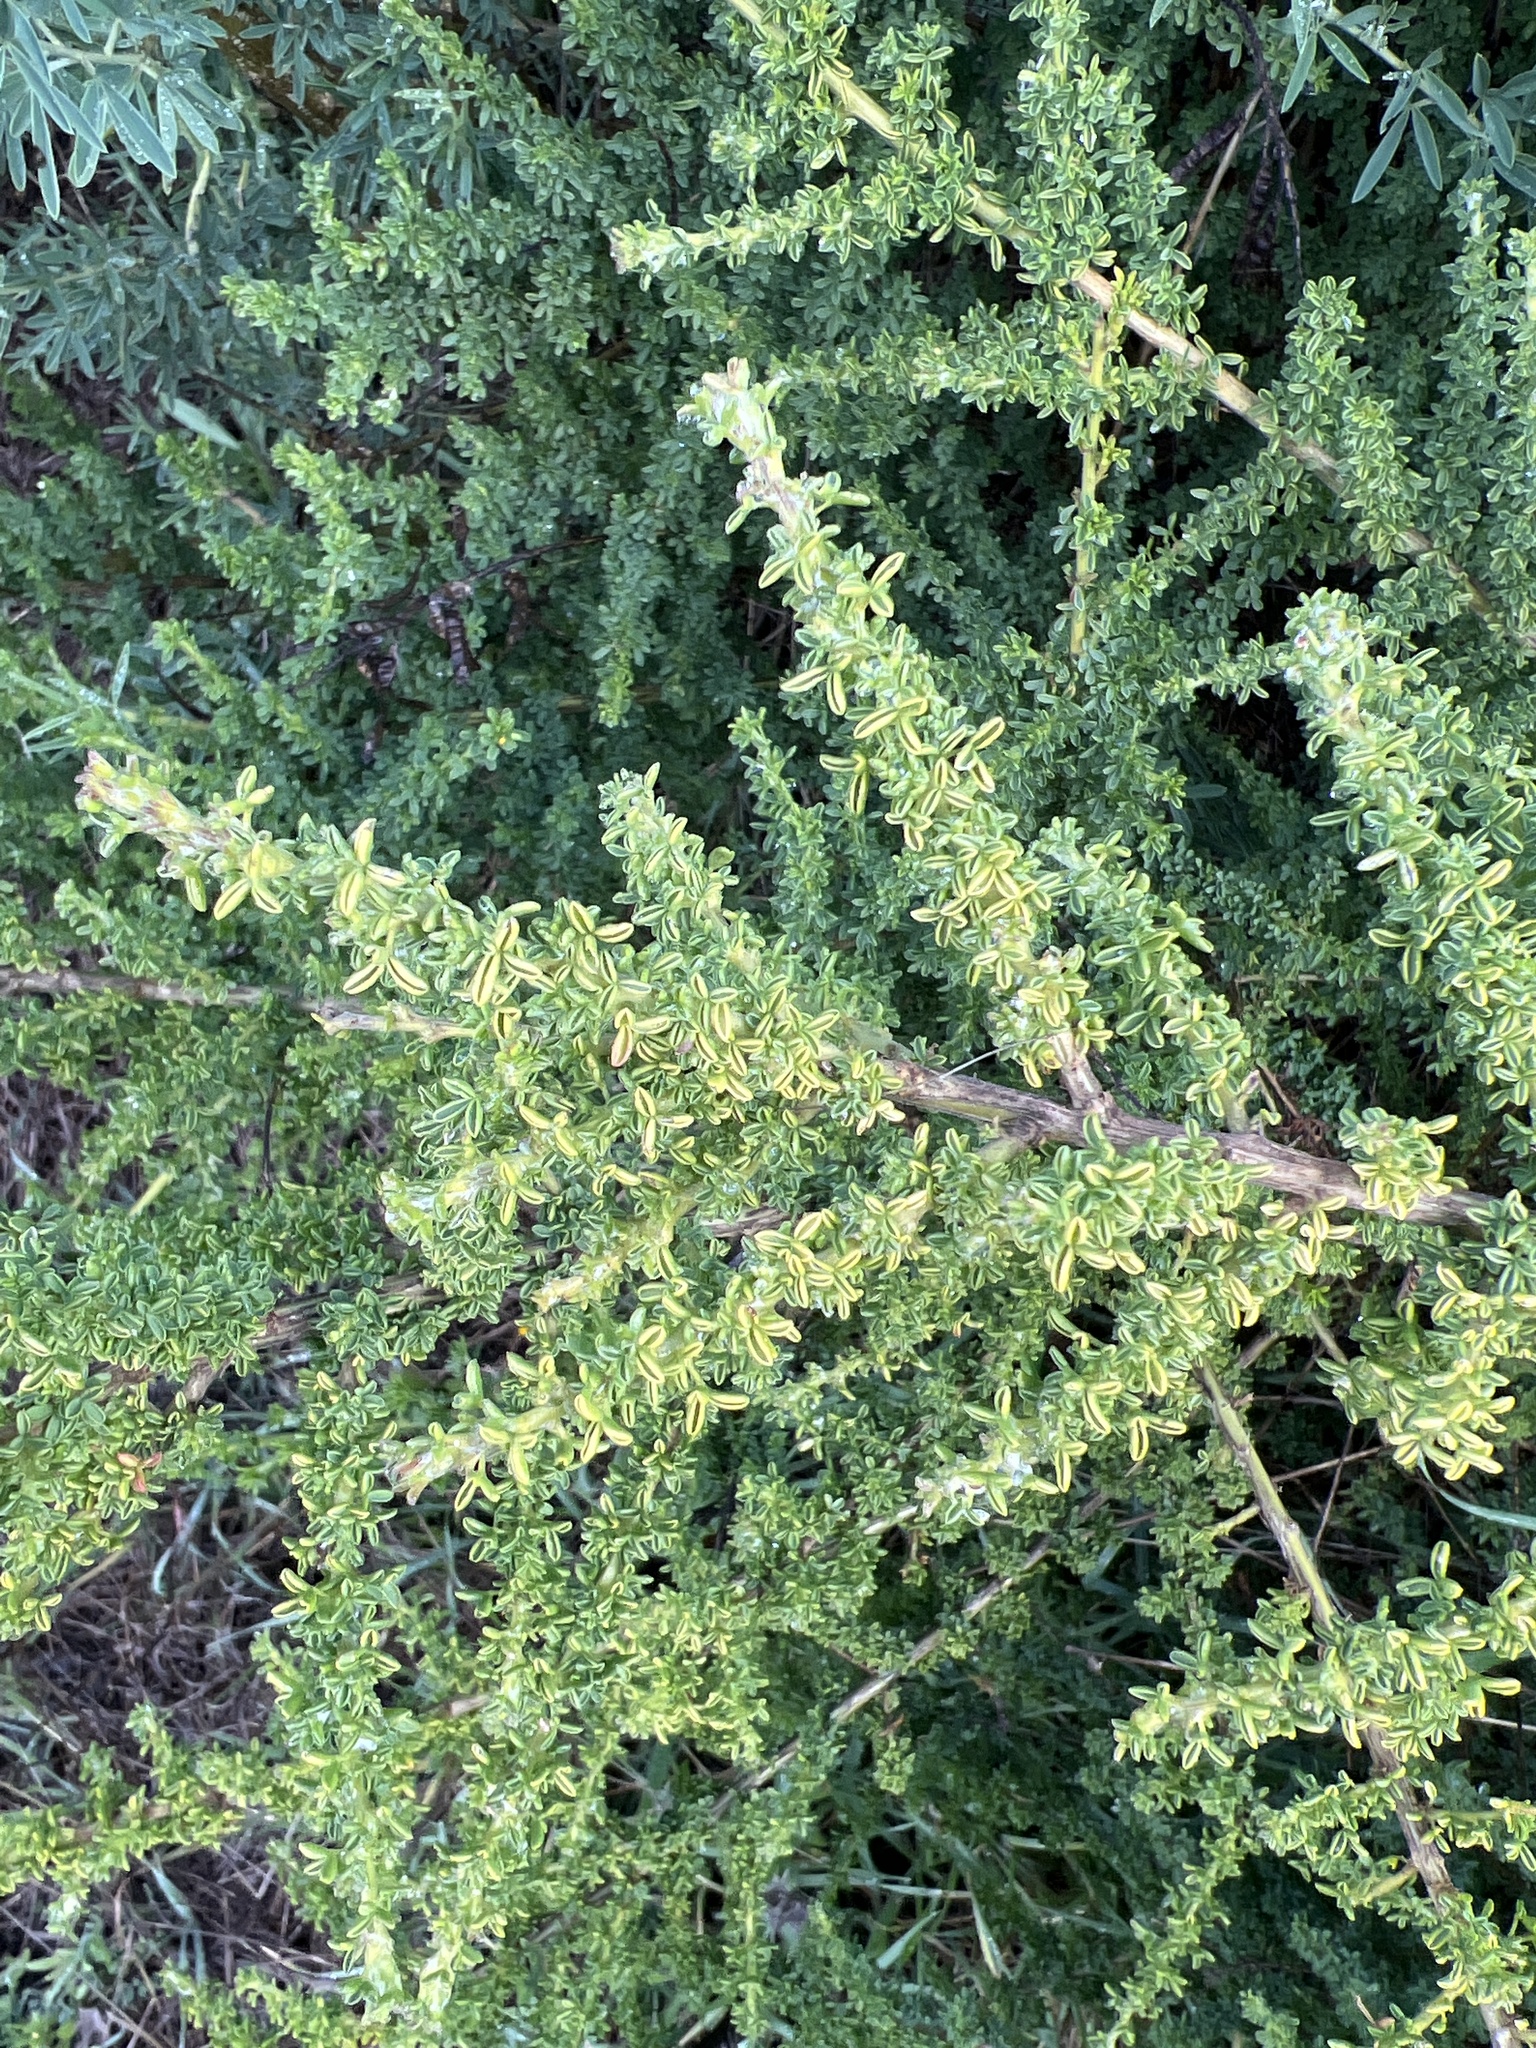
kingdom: Plantae
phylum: Tracheophyta
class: Magnoliopsida
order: Fabales
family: Fabaceae
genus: Adenocarpus
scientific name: Adenocarpus foliolosus
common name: Canary island flatpod
